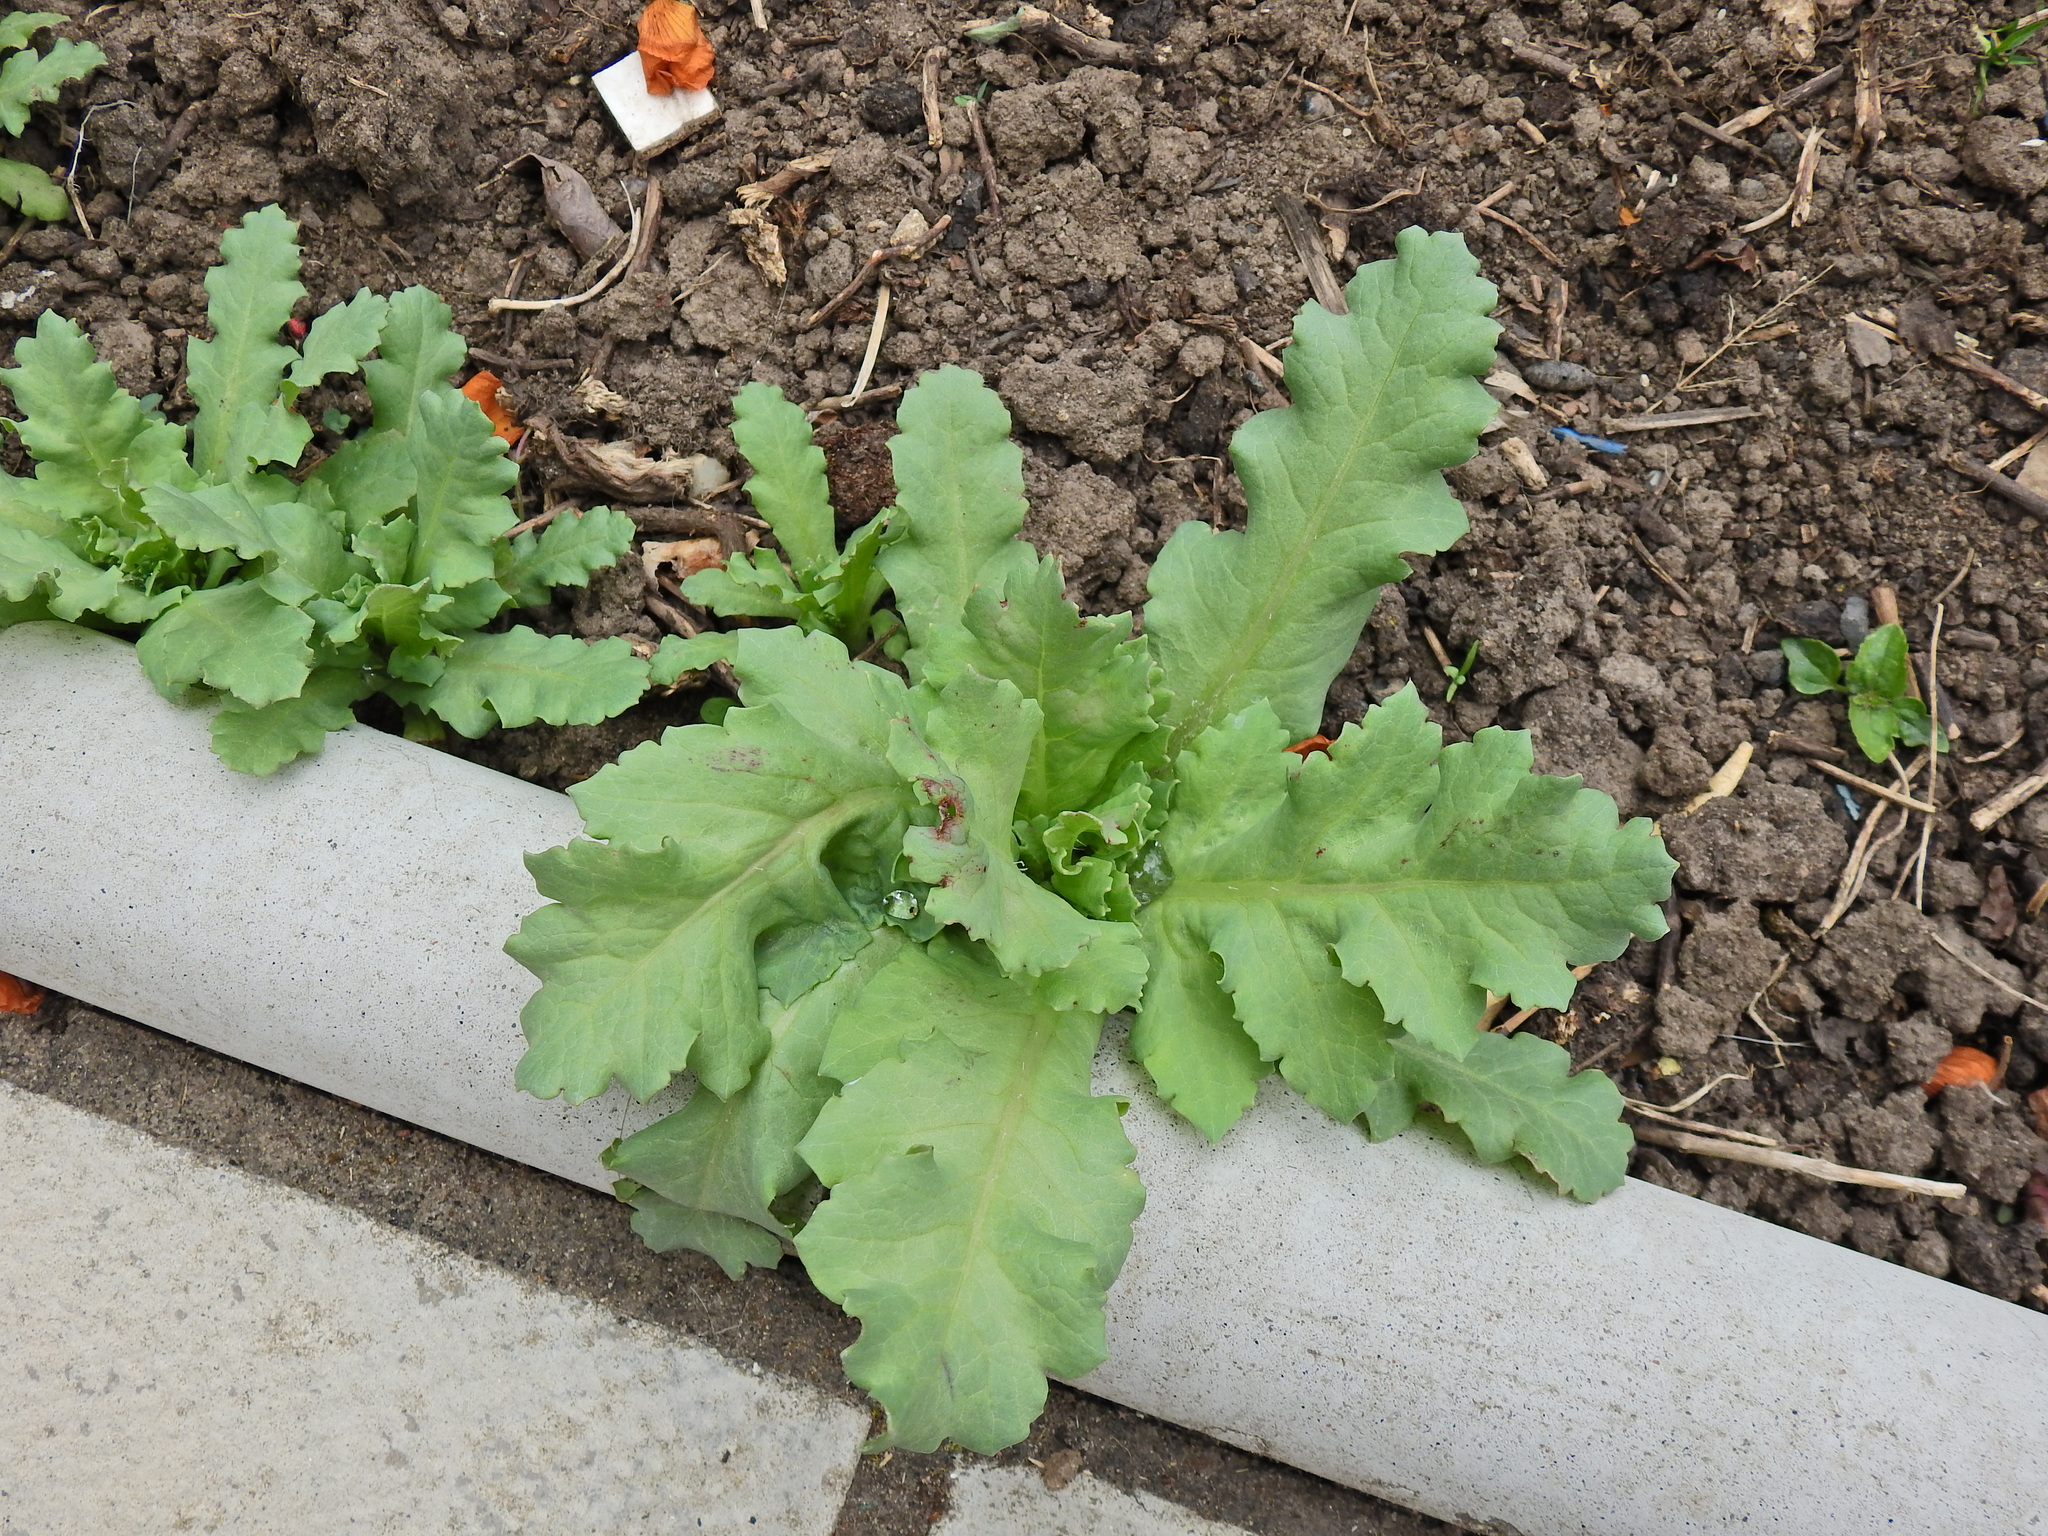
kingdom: Plantae
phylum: Tracheophyta
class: Magnoliopsida
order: Ranunculales
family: Papaveraceae
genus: Papaver
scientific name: Papaver somniferum
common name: Opium poppy
